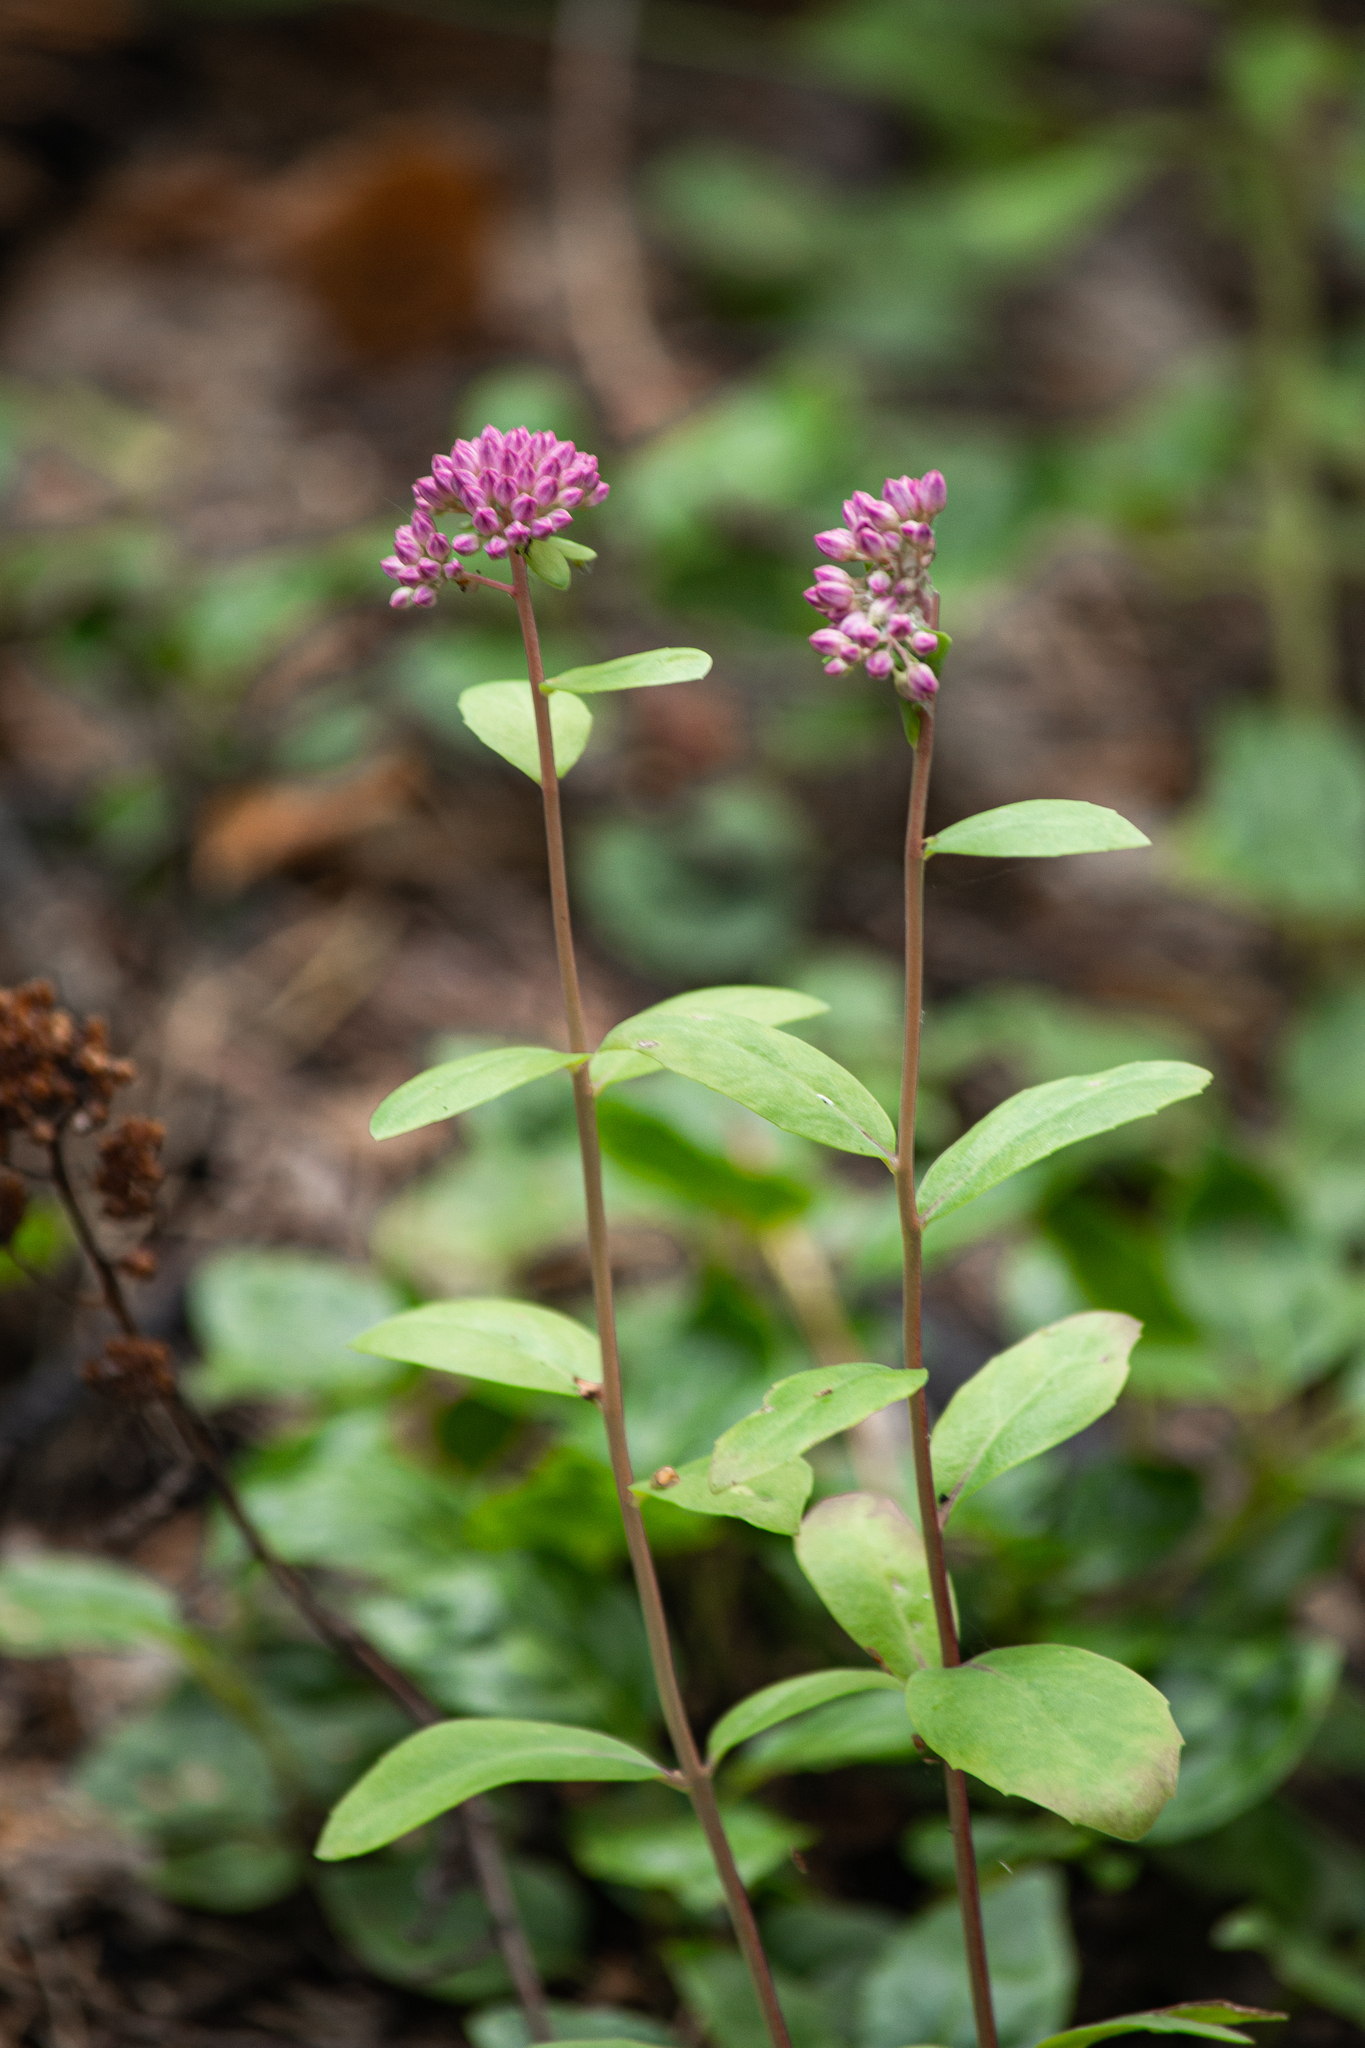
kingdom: Plantae
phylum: Tracheophyta
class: Magnoliopsida
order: Saxifragales
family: Crassulaceae
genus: Hylotelephium
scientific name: Hylotelephium telephium
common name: Live-forever
